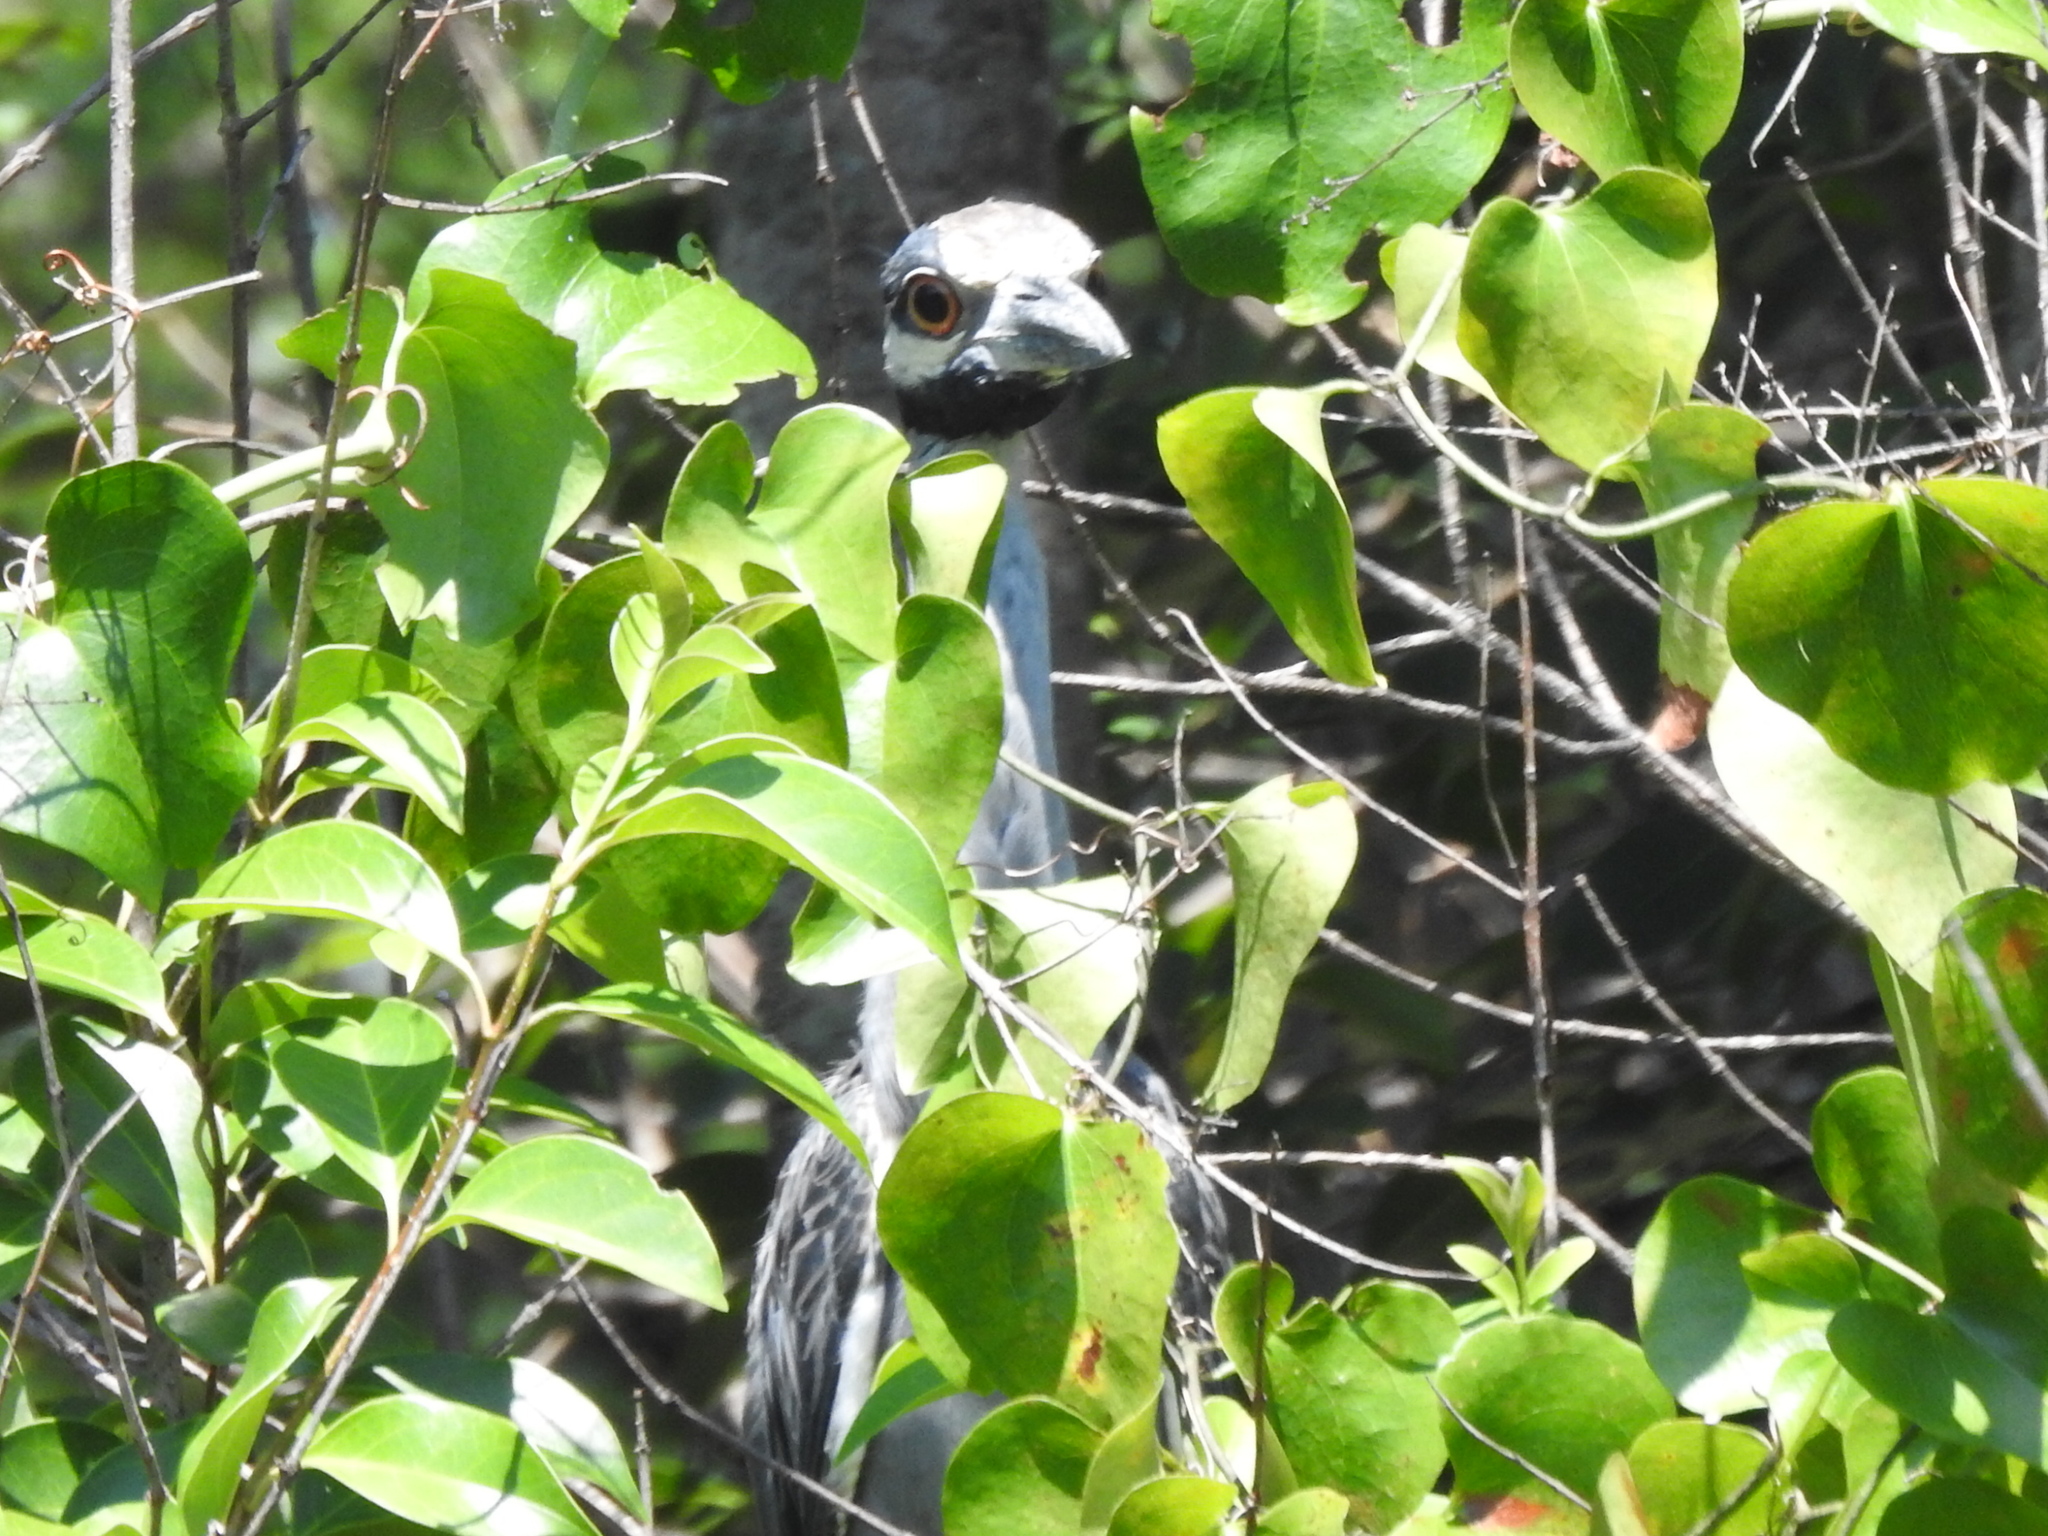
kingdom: Animalia
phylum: Chordata
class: Aves
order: Pelecaniformes
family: Ardeidae
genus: Nyctanassa
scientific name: Nyctanassa violacea
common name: Yellow-crowned night heron
